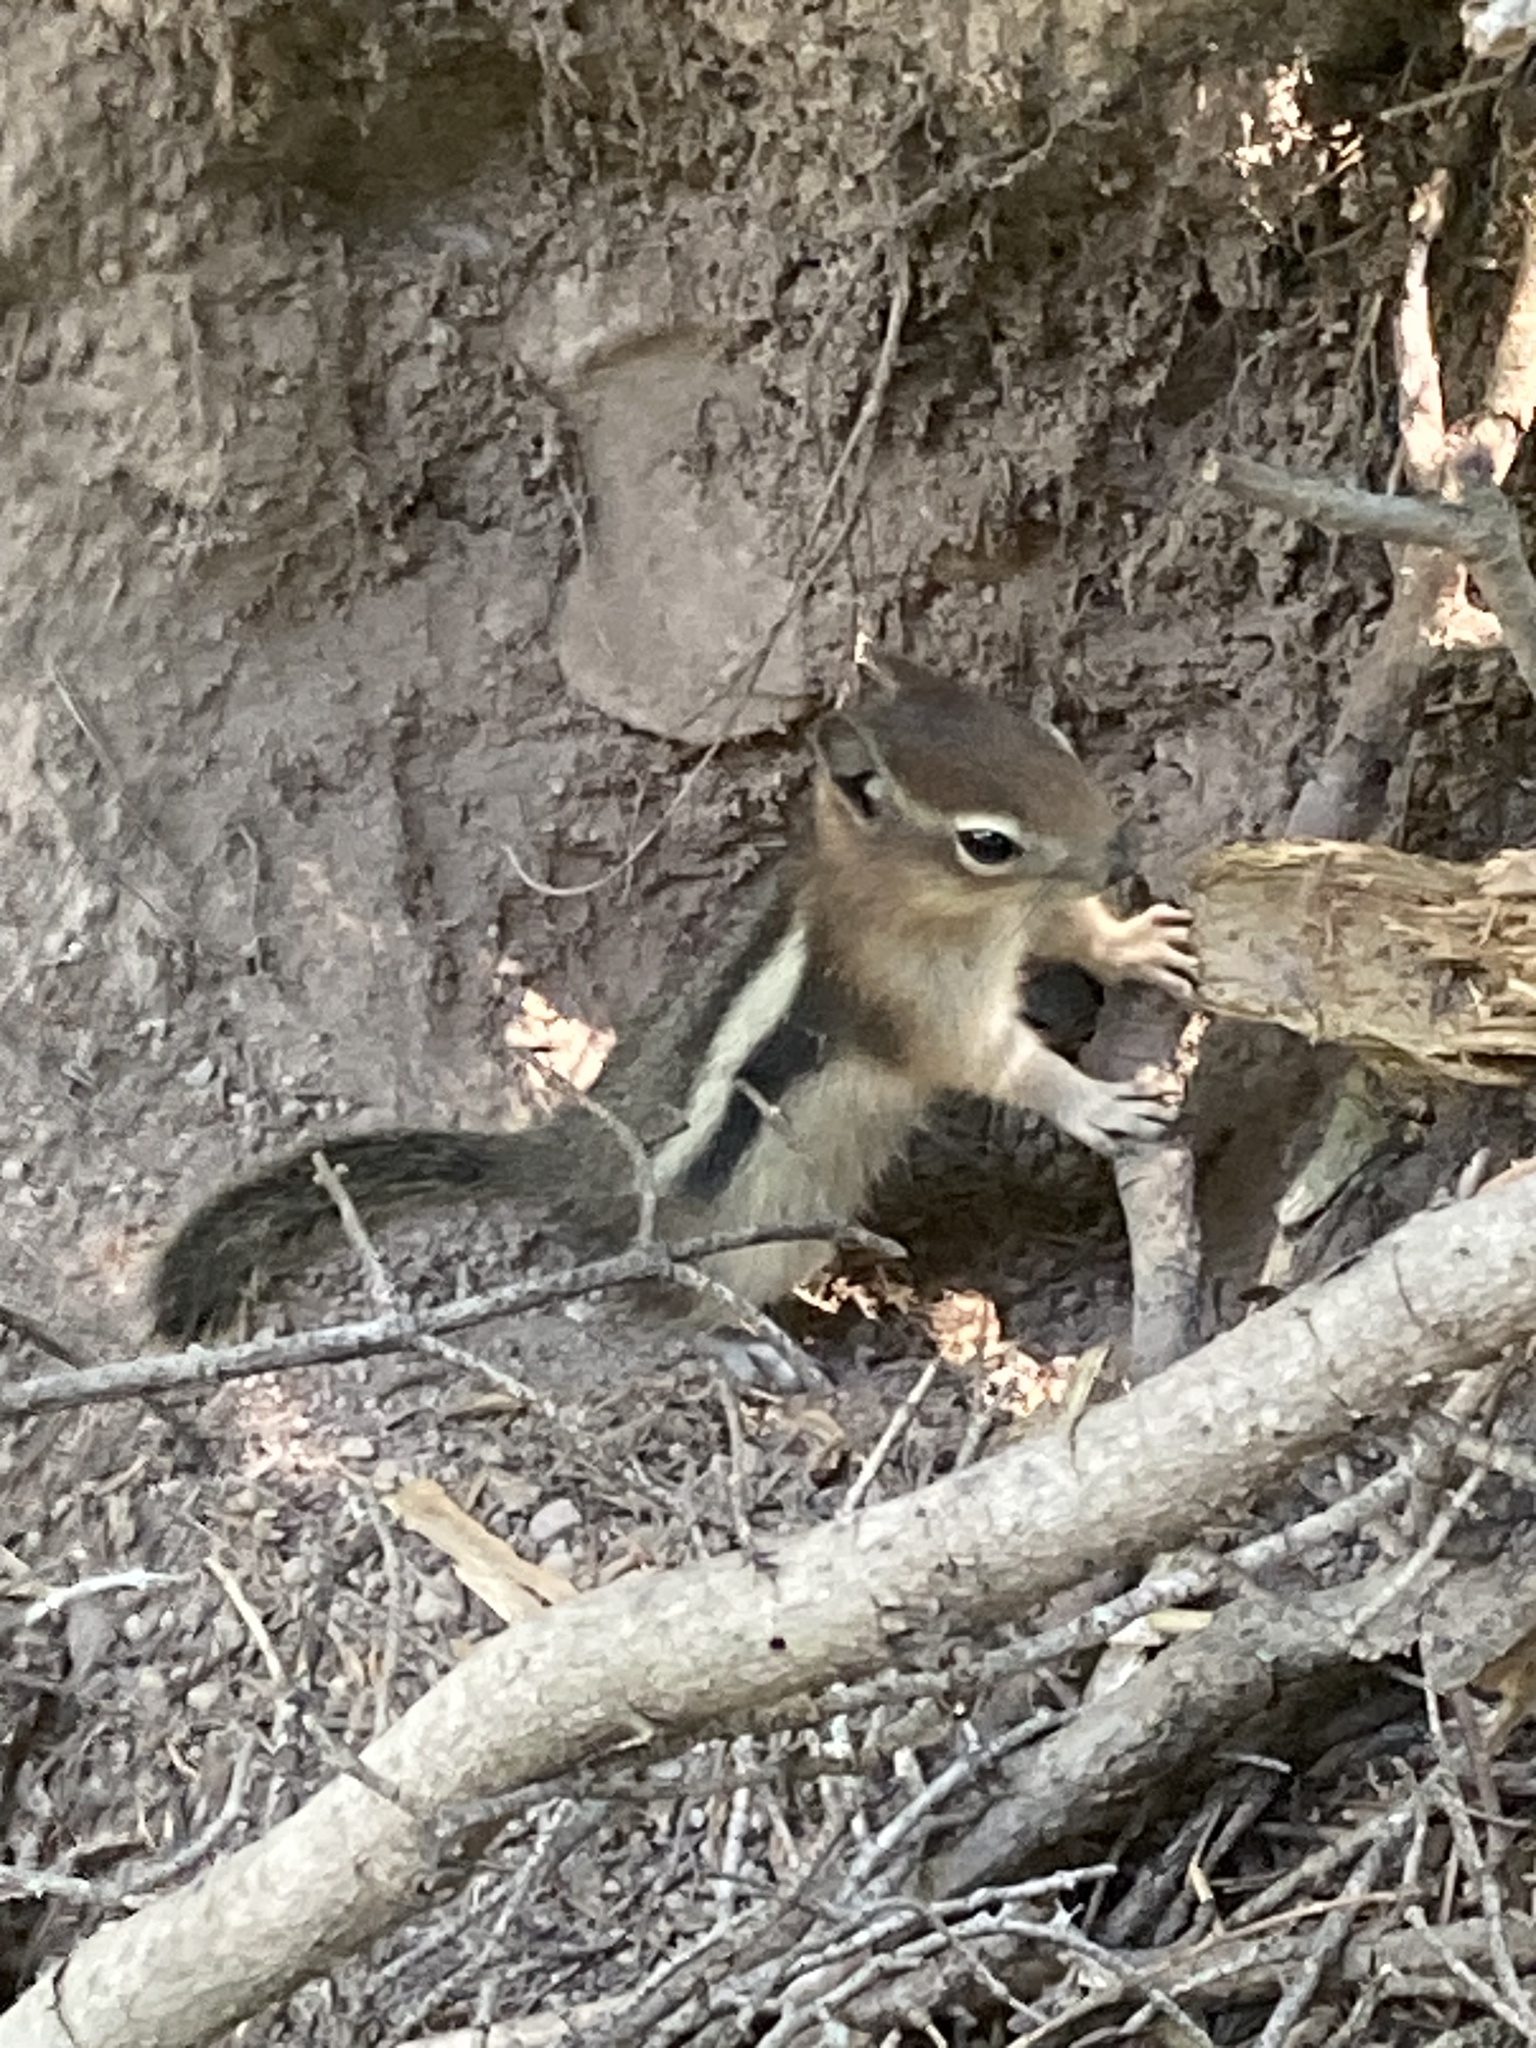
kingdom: Animalia
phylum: Chordata
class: Mammalia
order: Rodentia
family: Sciuridae
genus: Callospermophilus
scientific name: Callospermophilus lateralis
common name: Golden-mantled ground squirrel
